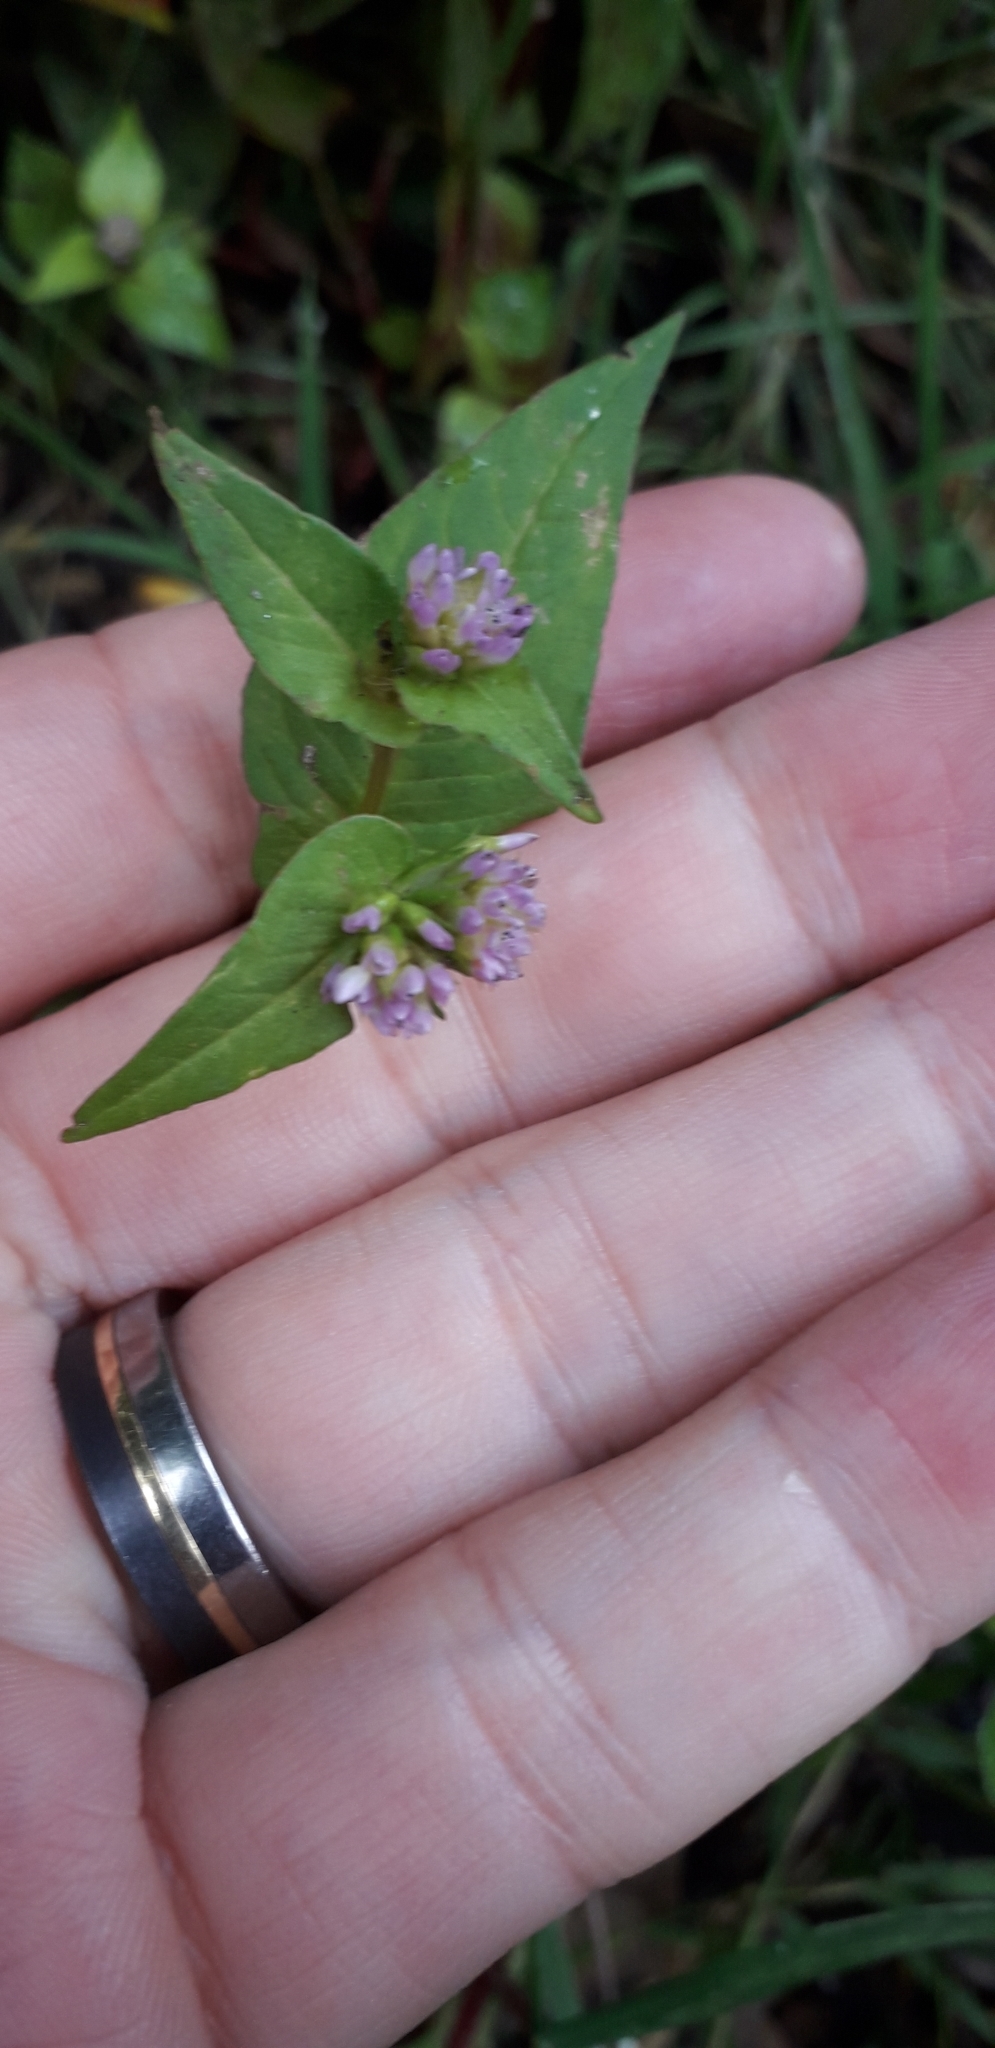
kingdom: Plantae
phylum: Tracheophyta
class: Magnoliopsida
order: Caryophyllales
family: Polygonaceae
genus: Persicaria
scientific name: Persicaria nepalensis
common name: Nepal persicaria
